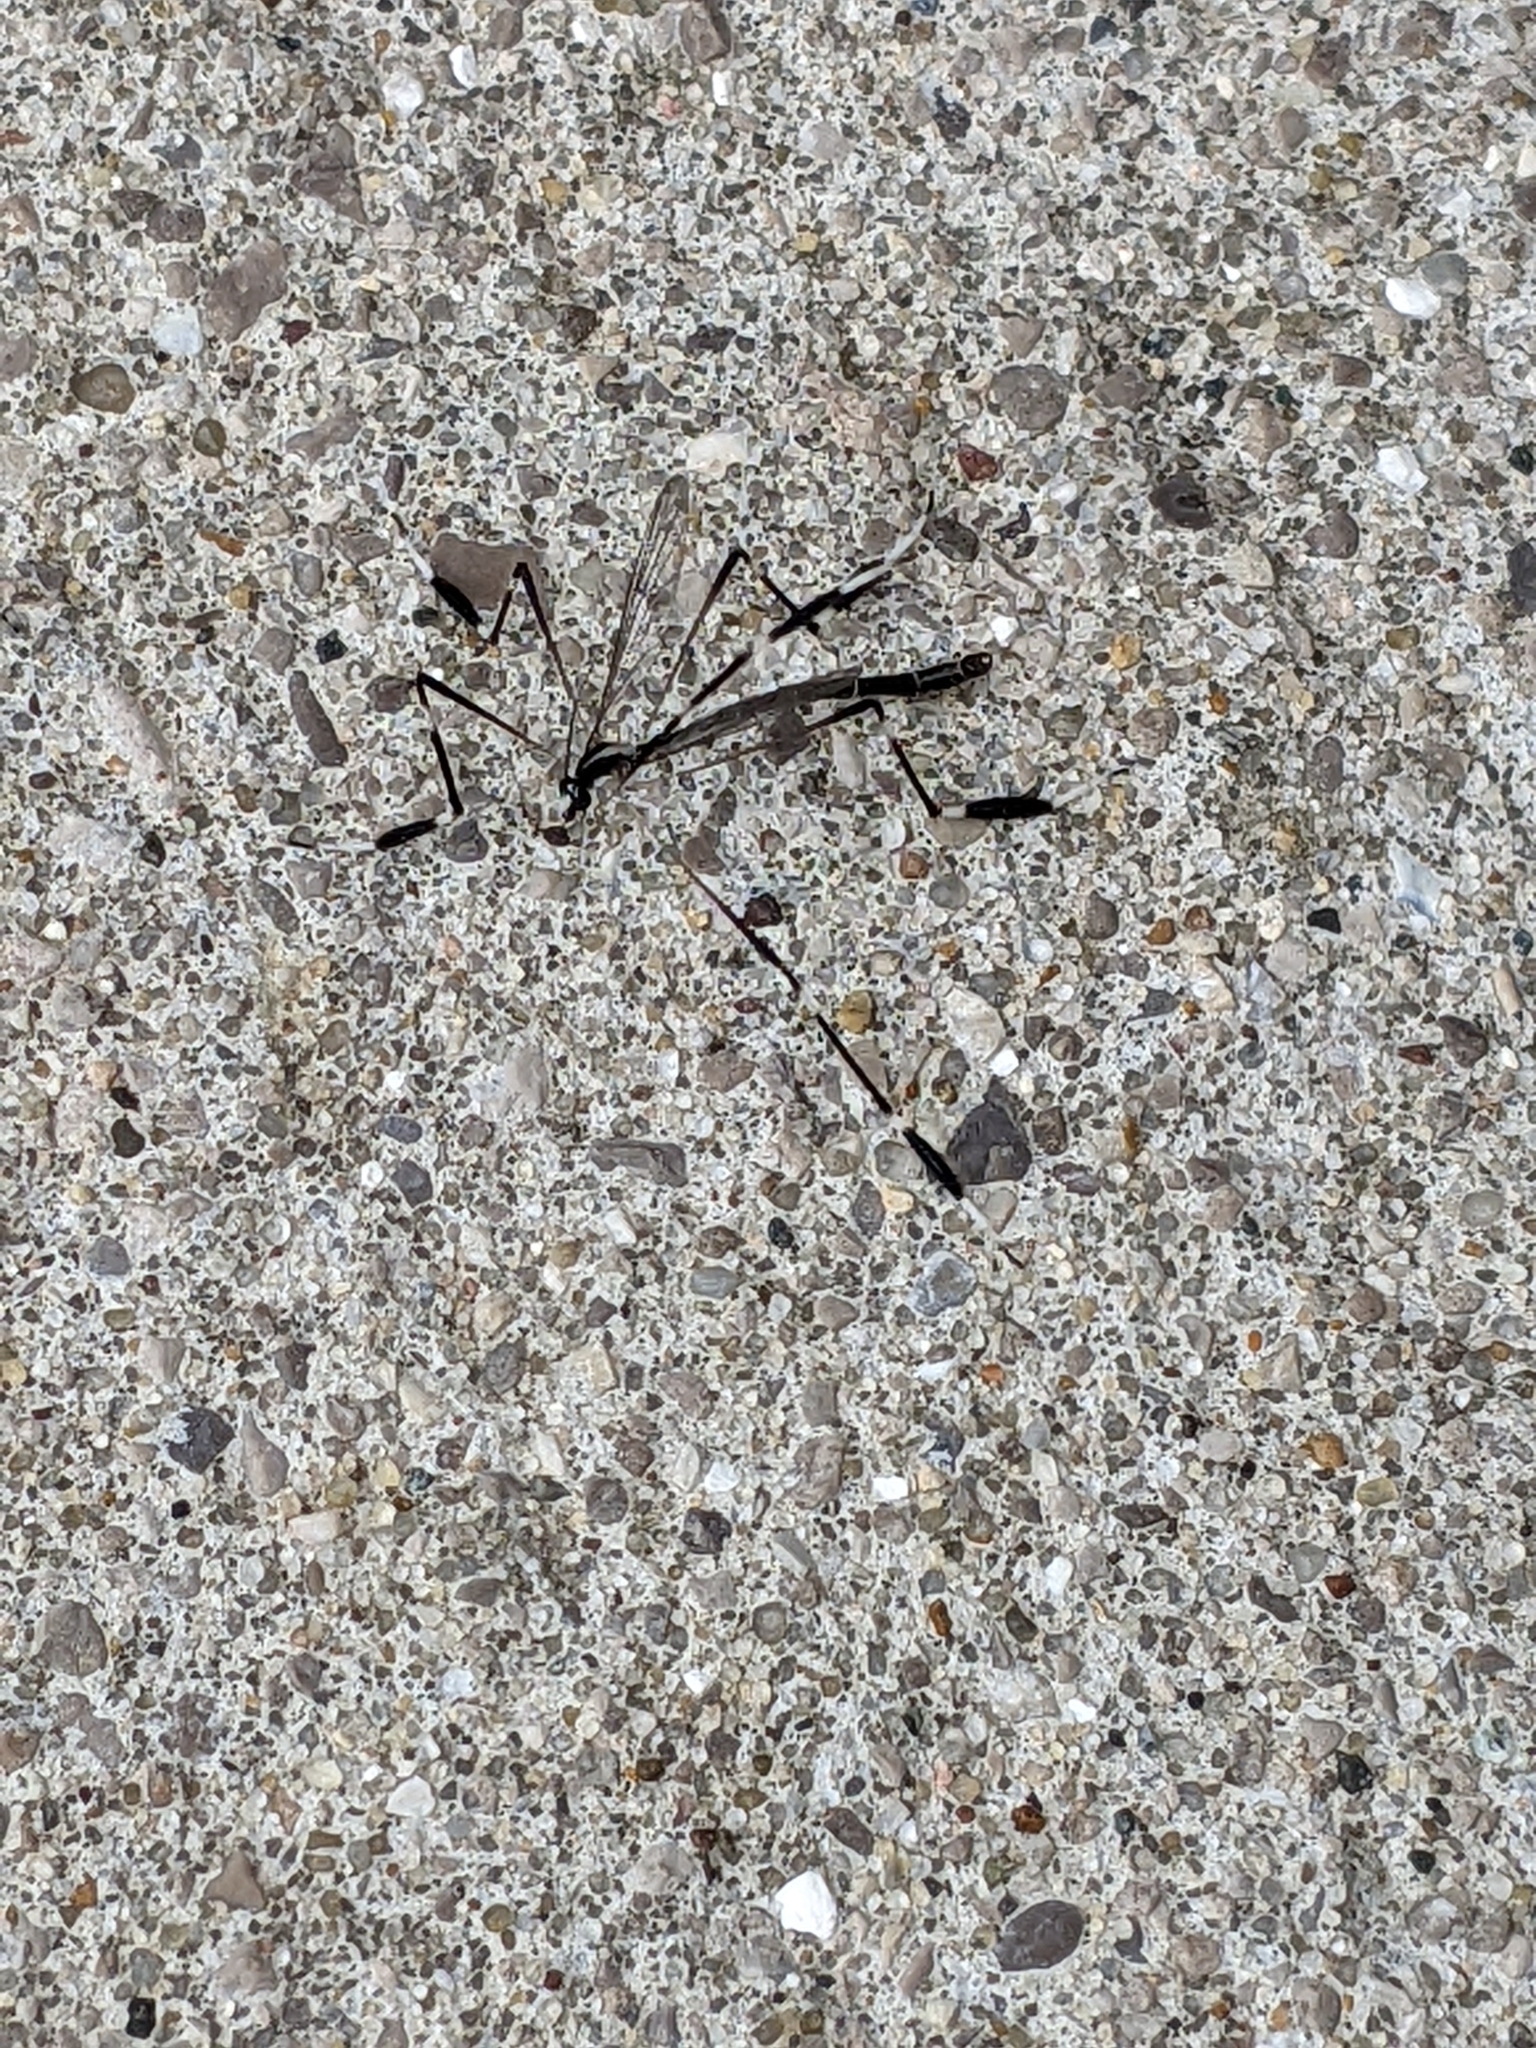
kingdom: Animalia
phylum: Arthropoda
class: Insecta
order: Diptera
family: Ptychopteridae
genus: Bittacomorpha
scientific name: Bittacomorpha clavipes
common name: Eastern phantom crane fly
